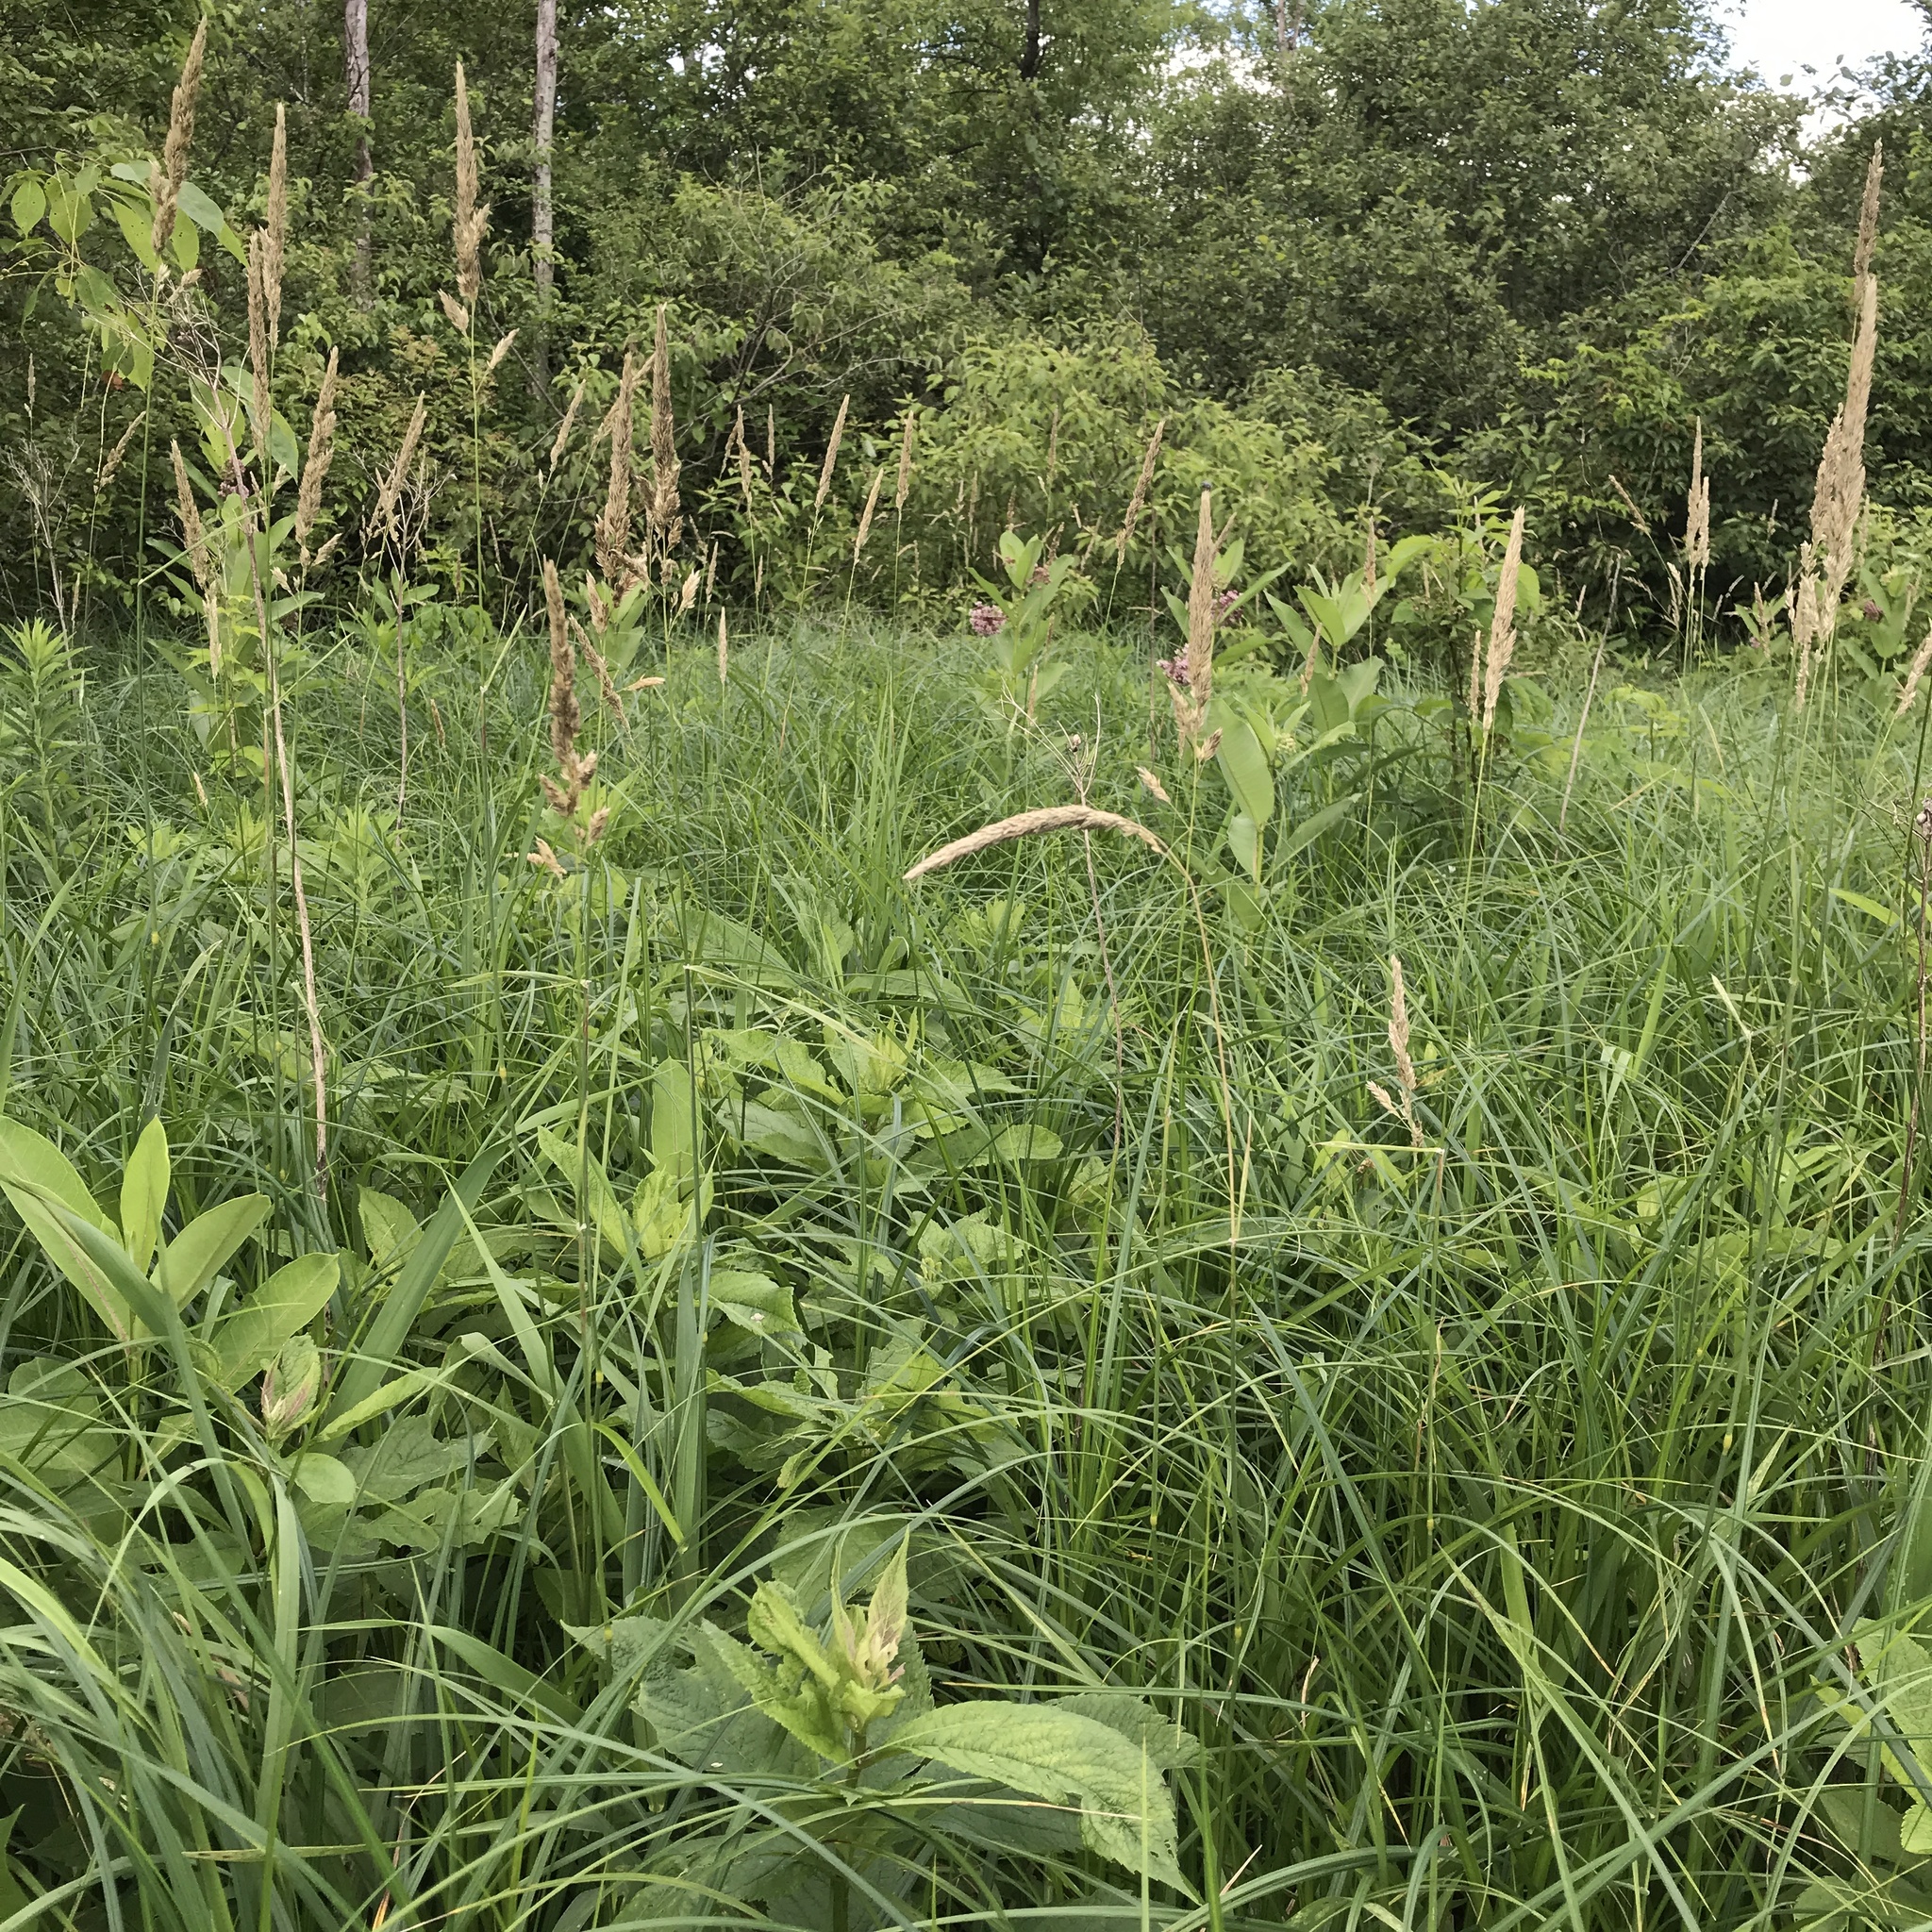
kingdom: Plantae
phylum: Tracheophyta
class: Liliopsida
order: Poales
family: Poaceae
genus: Phalaris
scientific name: Phalaris arundinacea
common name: Reed canary-grass
